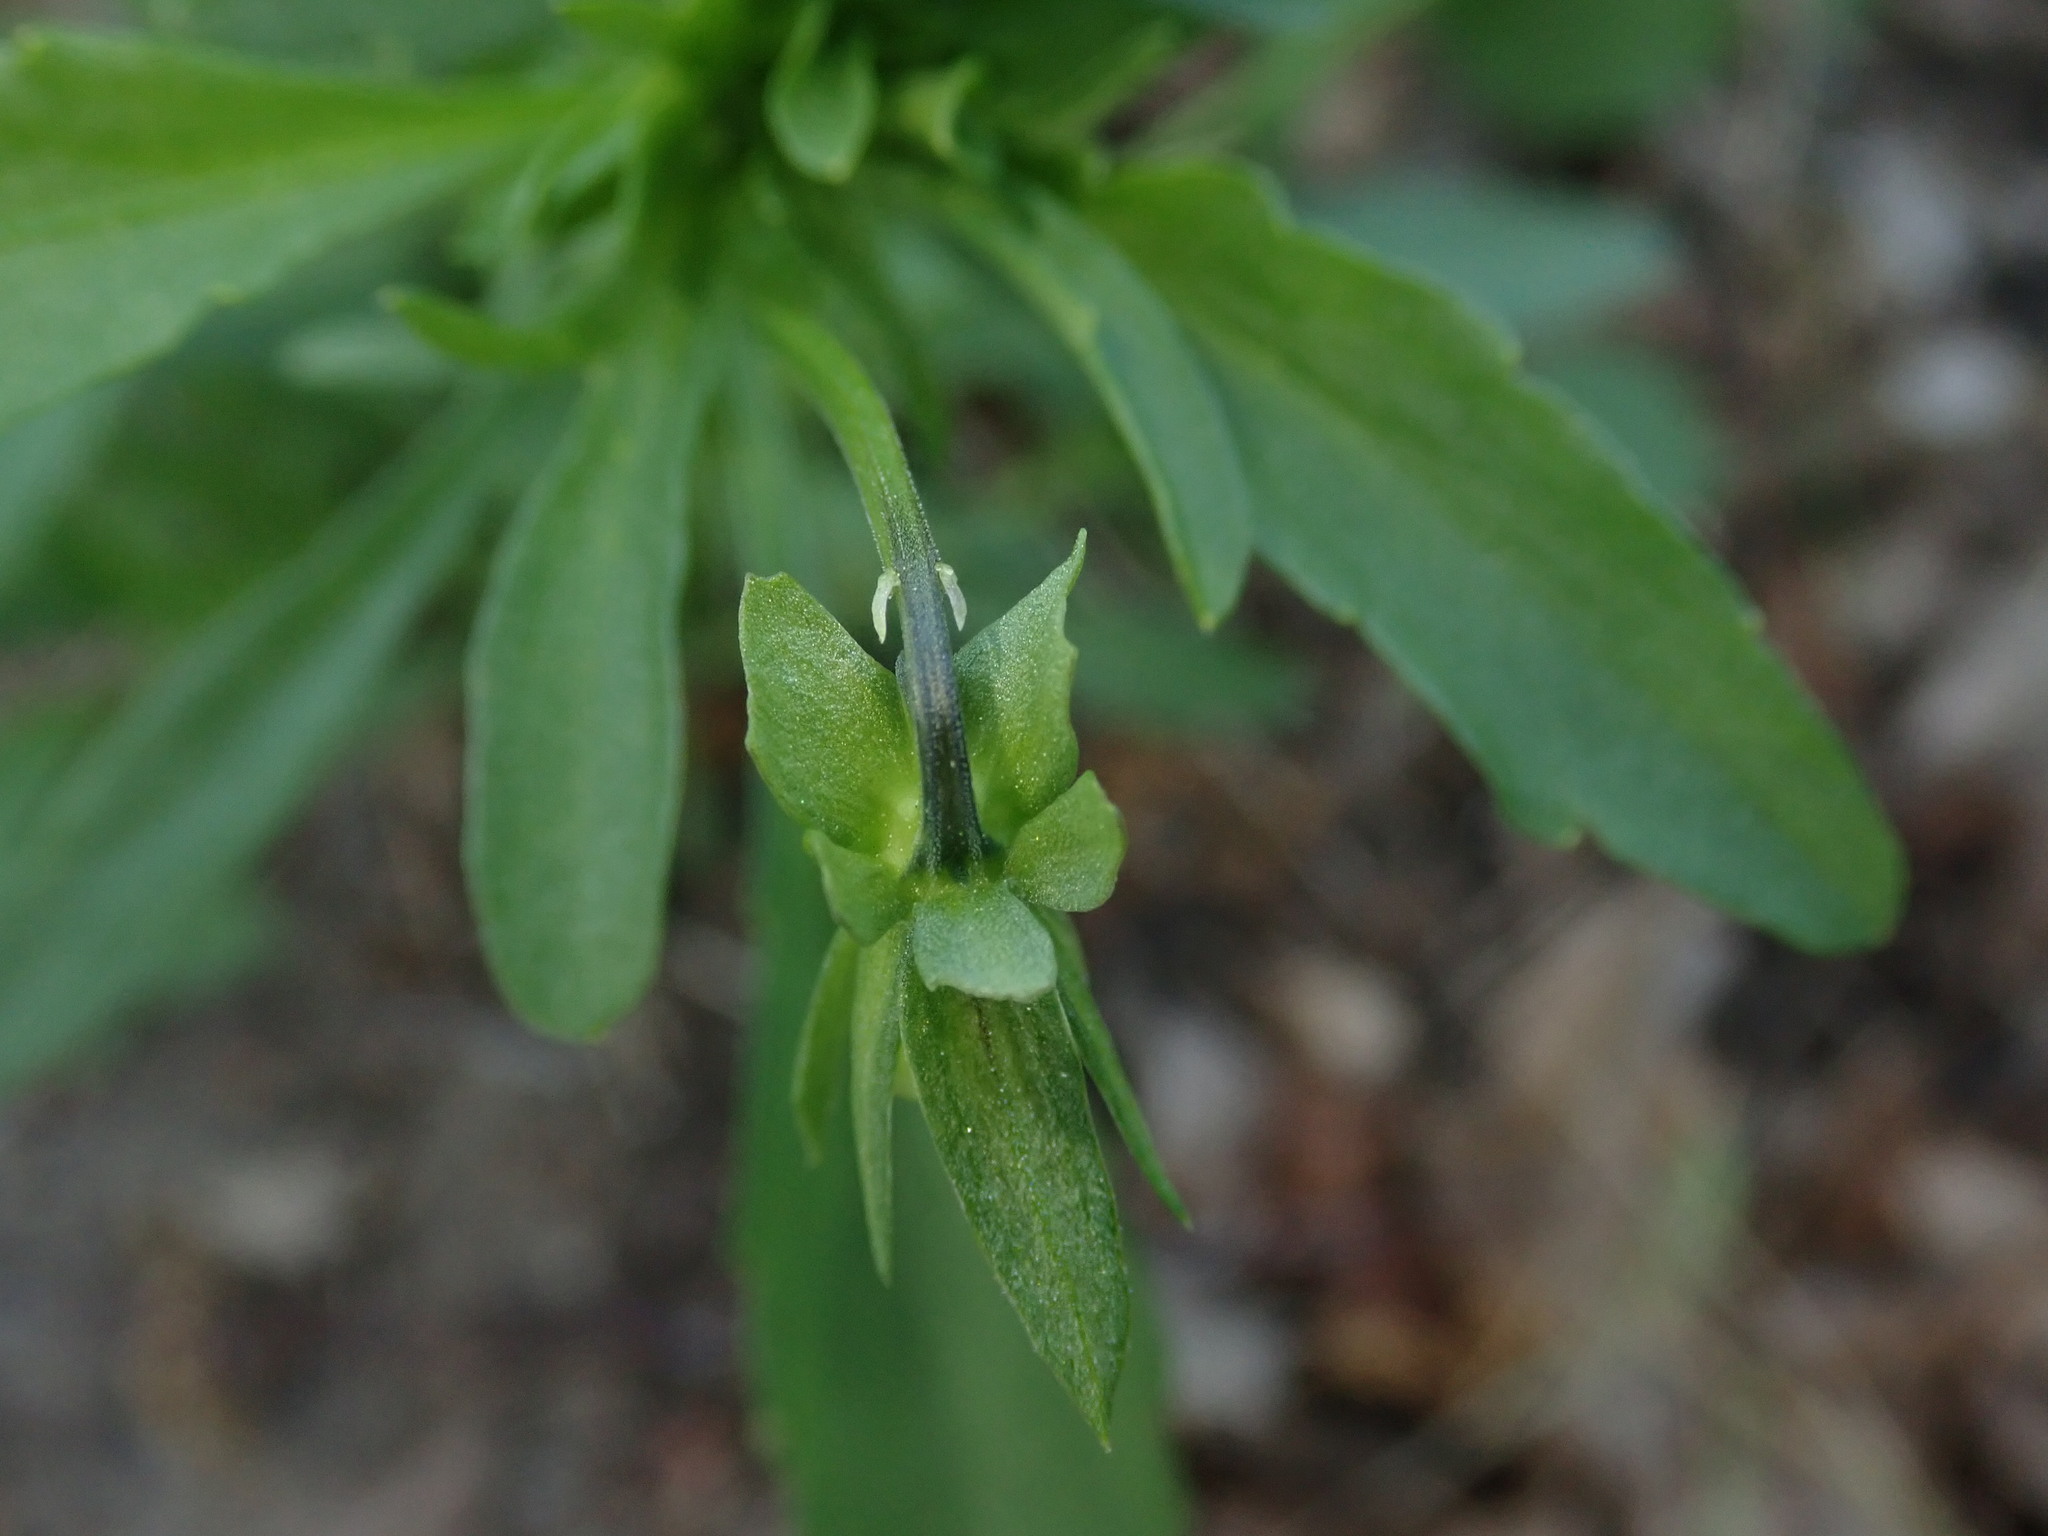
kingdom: Plantae
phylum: Tracheophyta
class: Magnoliopsida
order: Malpighiales
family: Violaceae
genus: Viola
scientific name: Viola arvensis
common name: Field pansy
